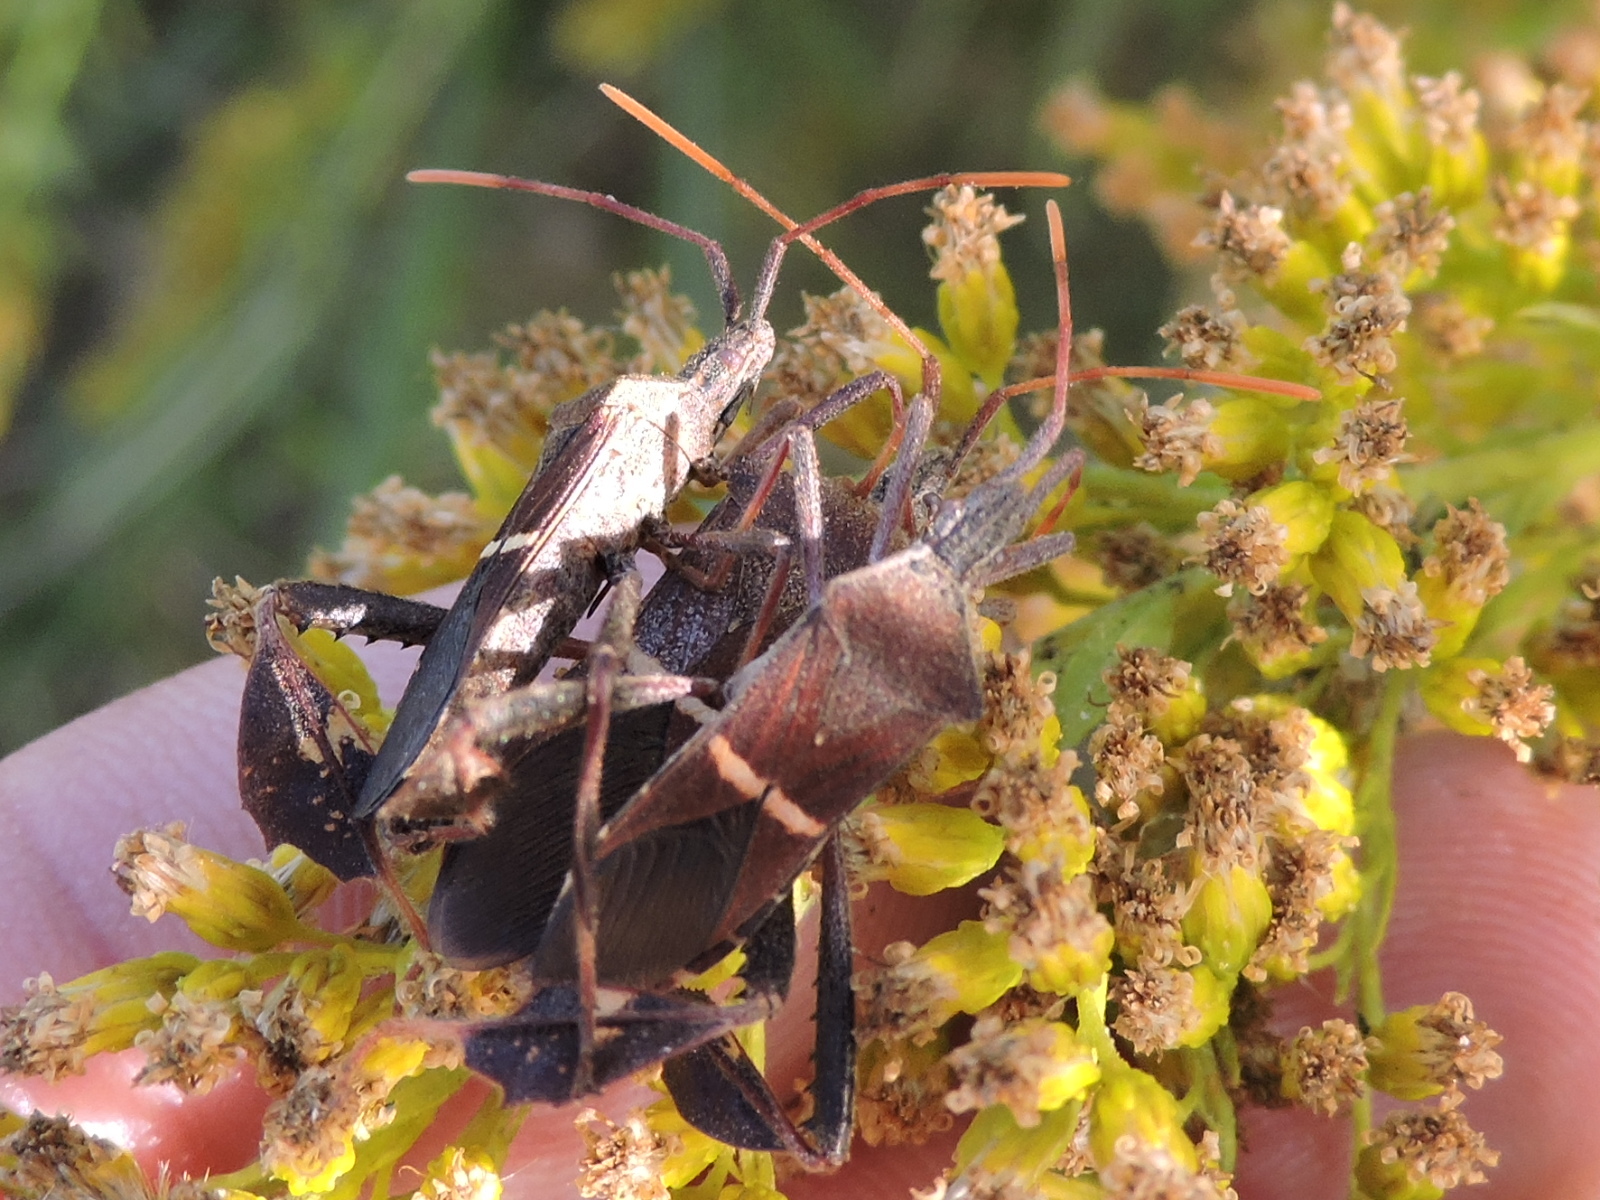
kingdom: Animalia
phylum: Arthropoda
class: Insecta
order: Hemiptera
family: Coreidae
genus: Leptoglossus
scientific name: Leptoglossus phyllopus
